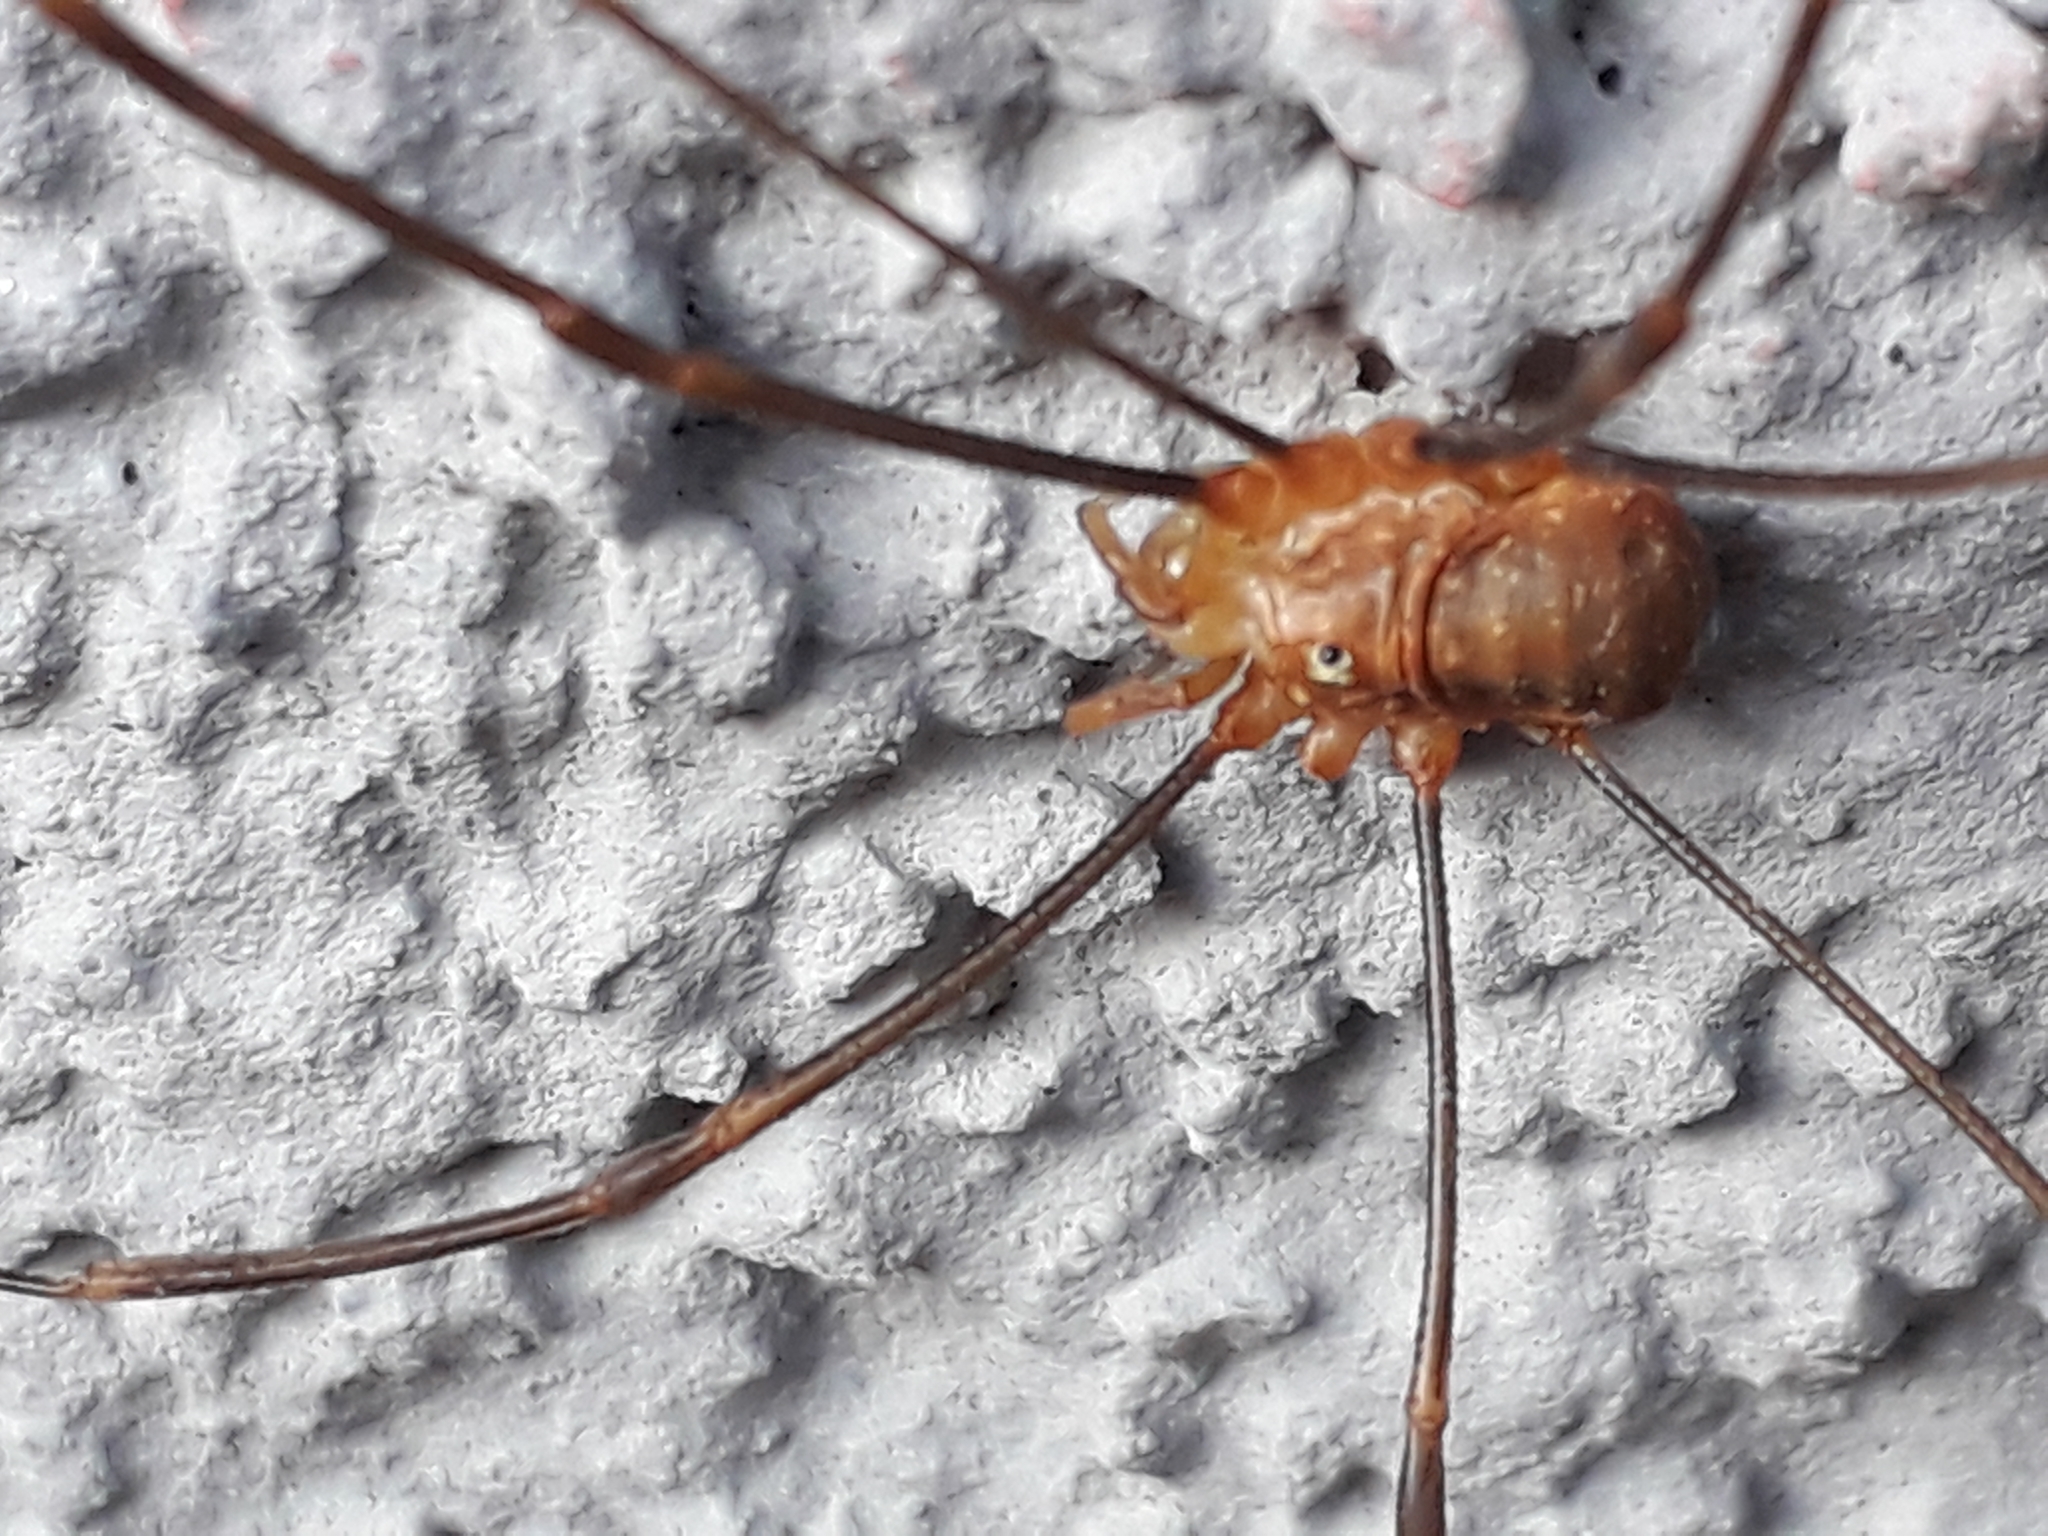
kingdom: Animalia
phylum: Arthropoda
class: Arachnida
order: Opiliones
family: Phalangiidae
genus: Opilio
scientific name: Opilio canestrinii
